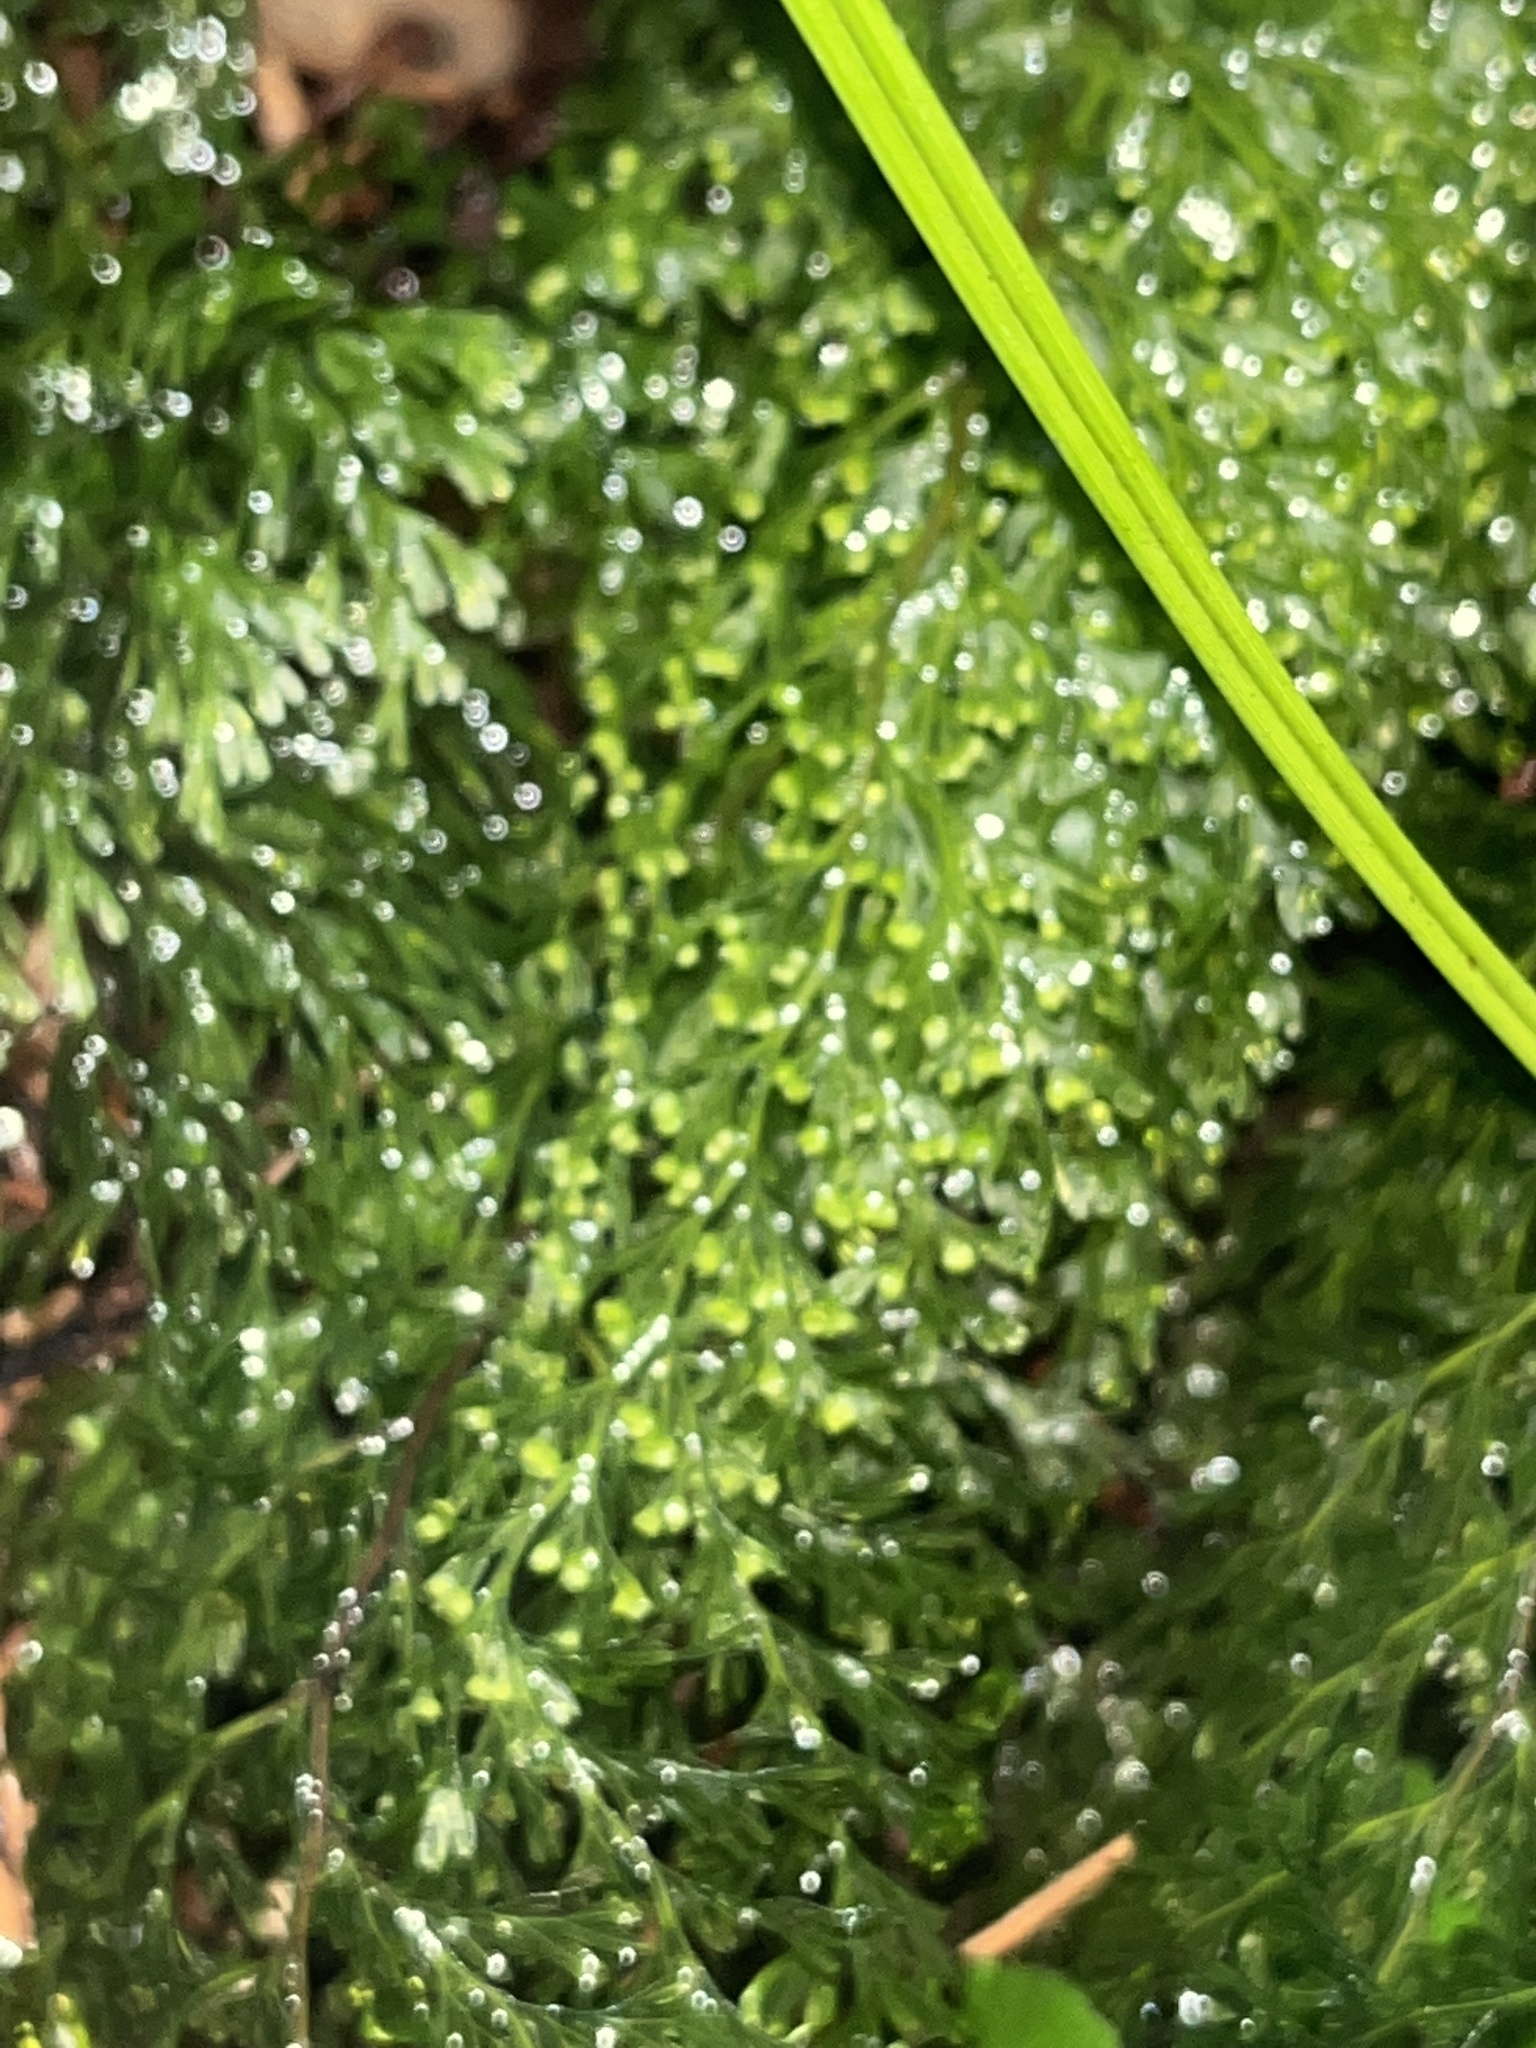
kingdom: Plantae
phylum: Tracheophyta
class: Polypodiopsida
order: Hymenophyllales
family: Hymenophyllaceae
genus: Hymenophyllum
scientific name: Hymenophyllum demissum
